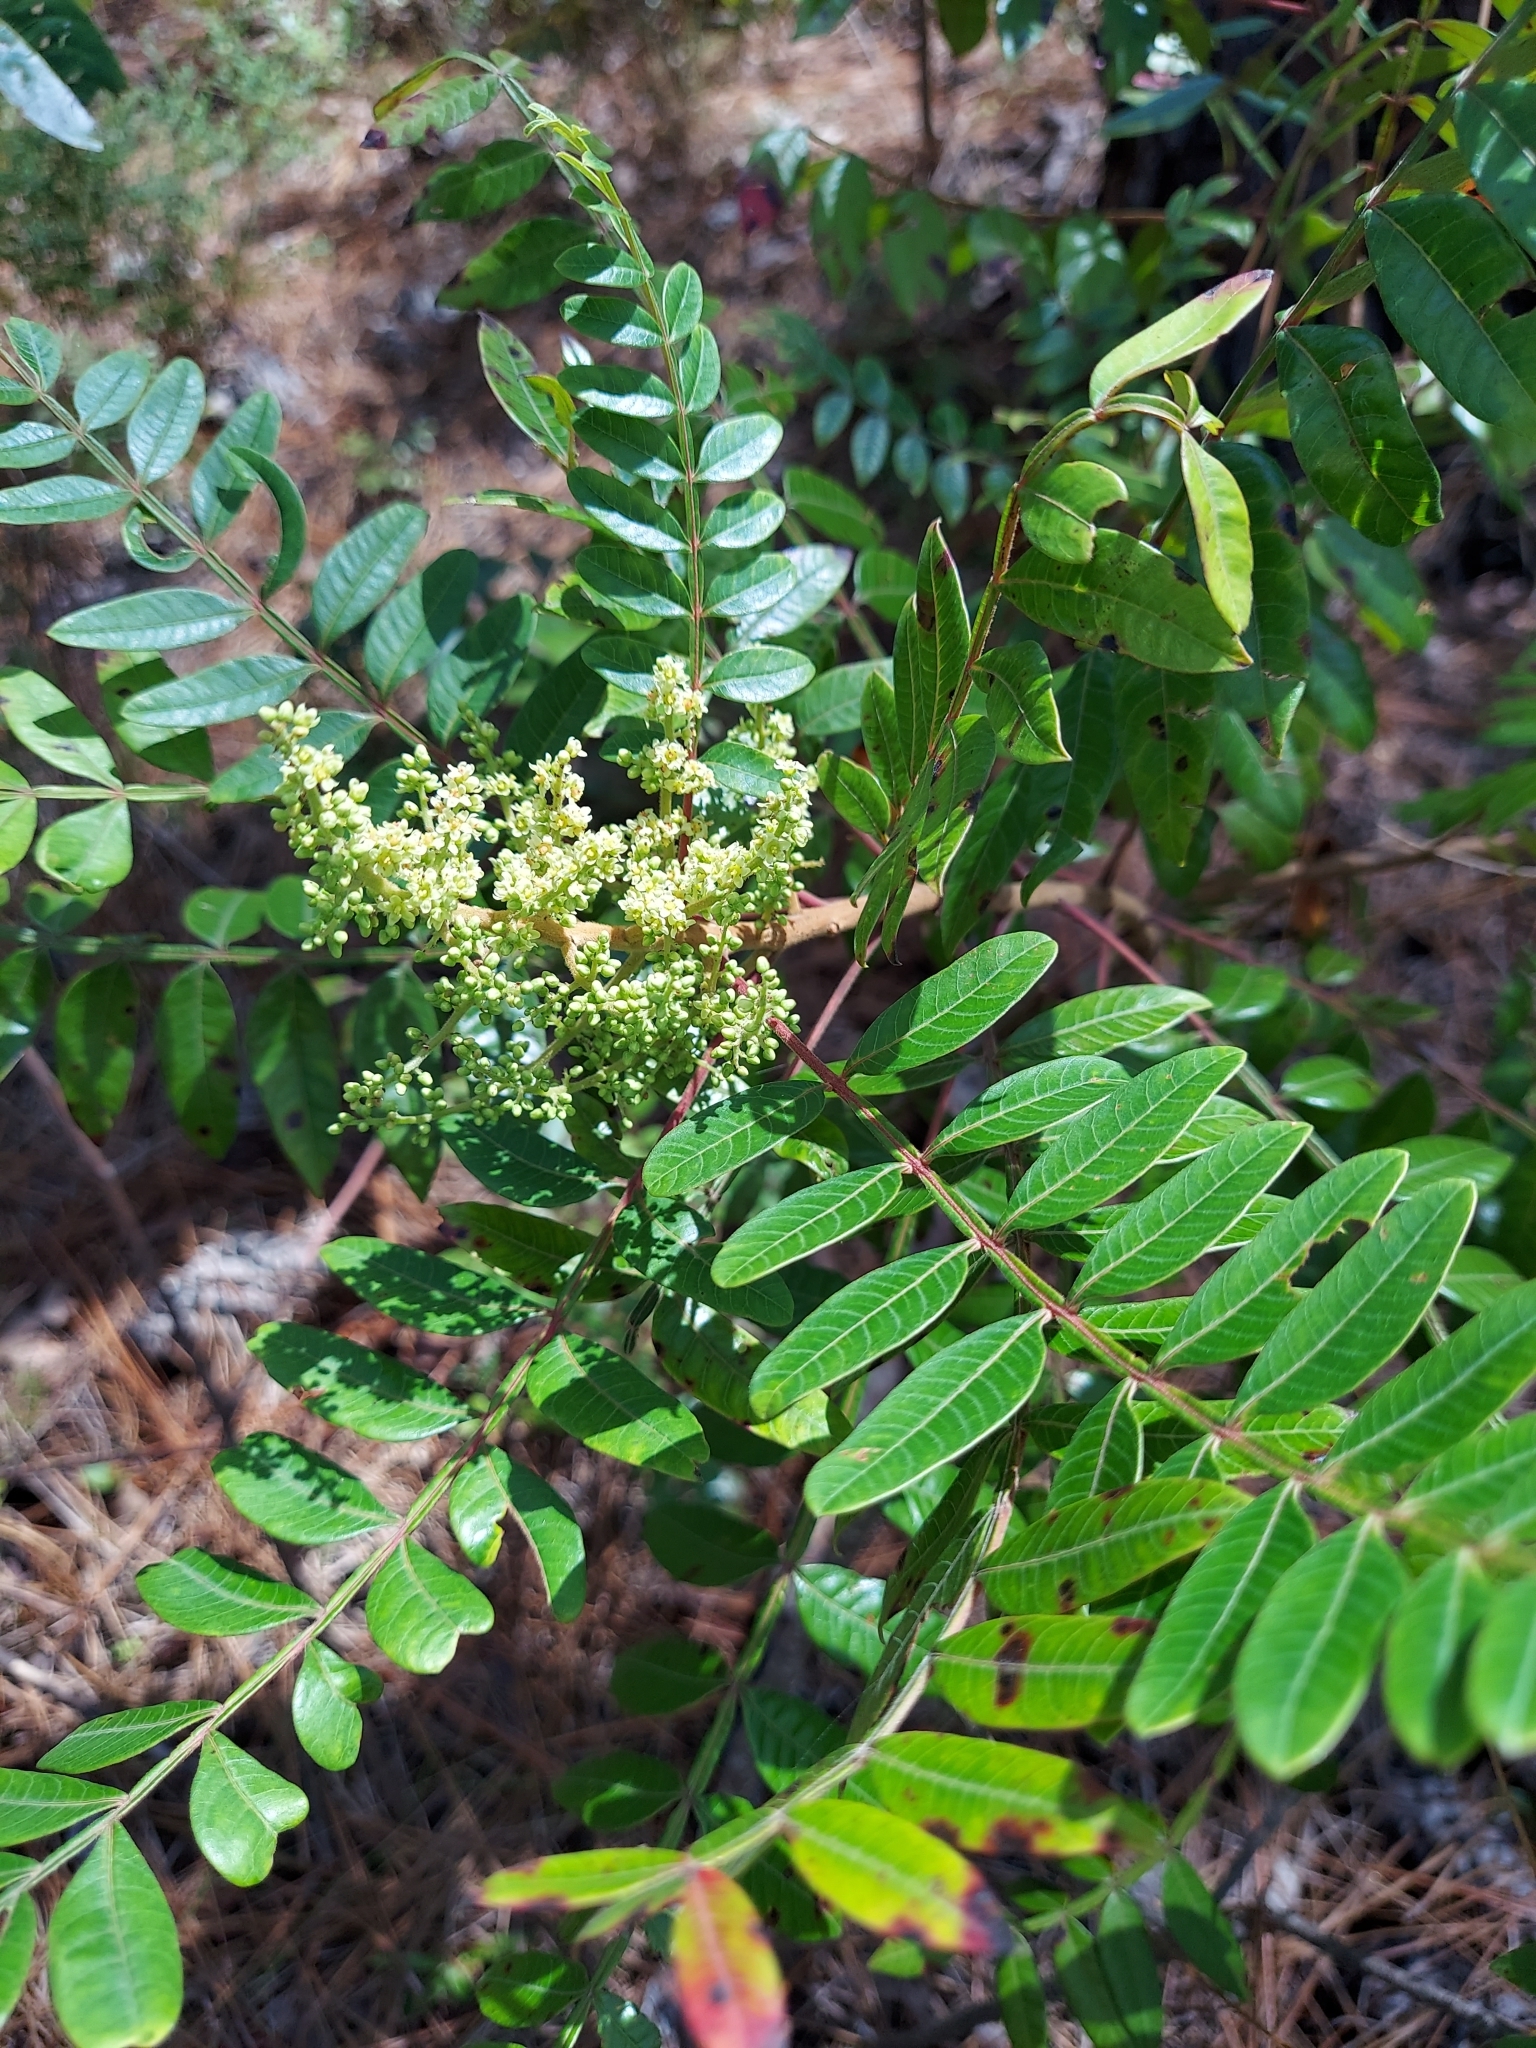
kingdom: Plantae
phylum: Tracheophyta
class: Magnoliopsida
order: Sapindales
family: Anacardiaceae
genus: Rhus
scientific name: Rhus copallina
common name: Shining sumac
